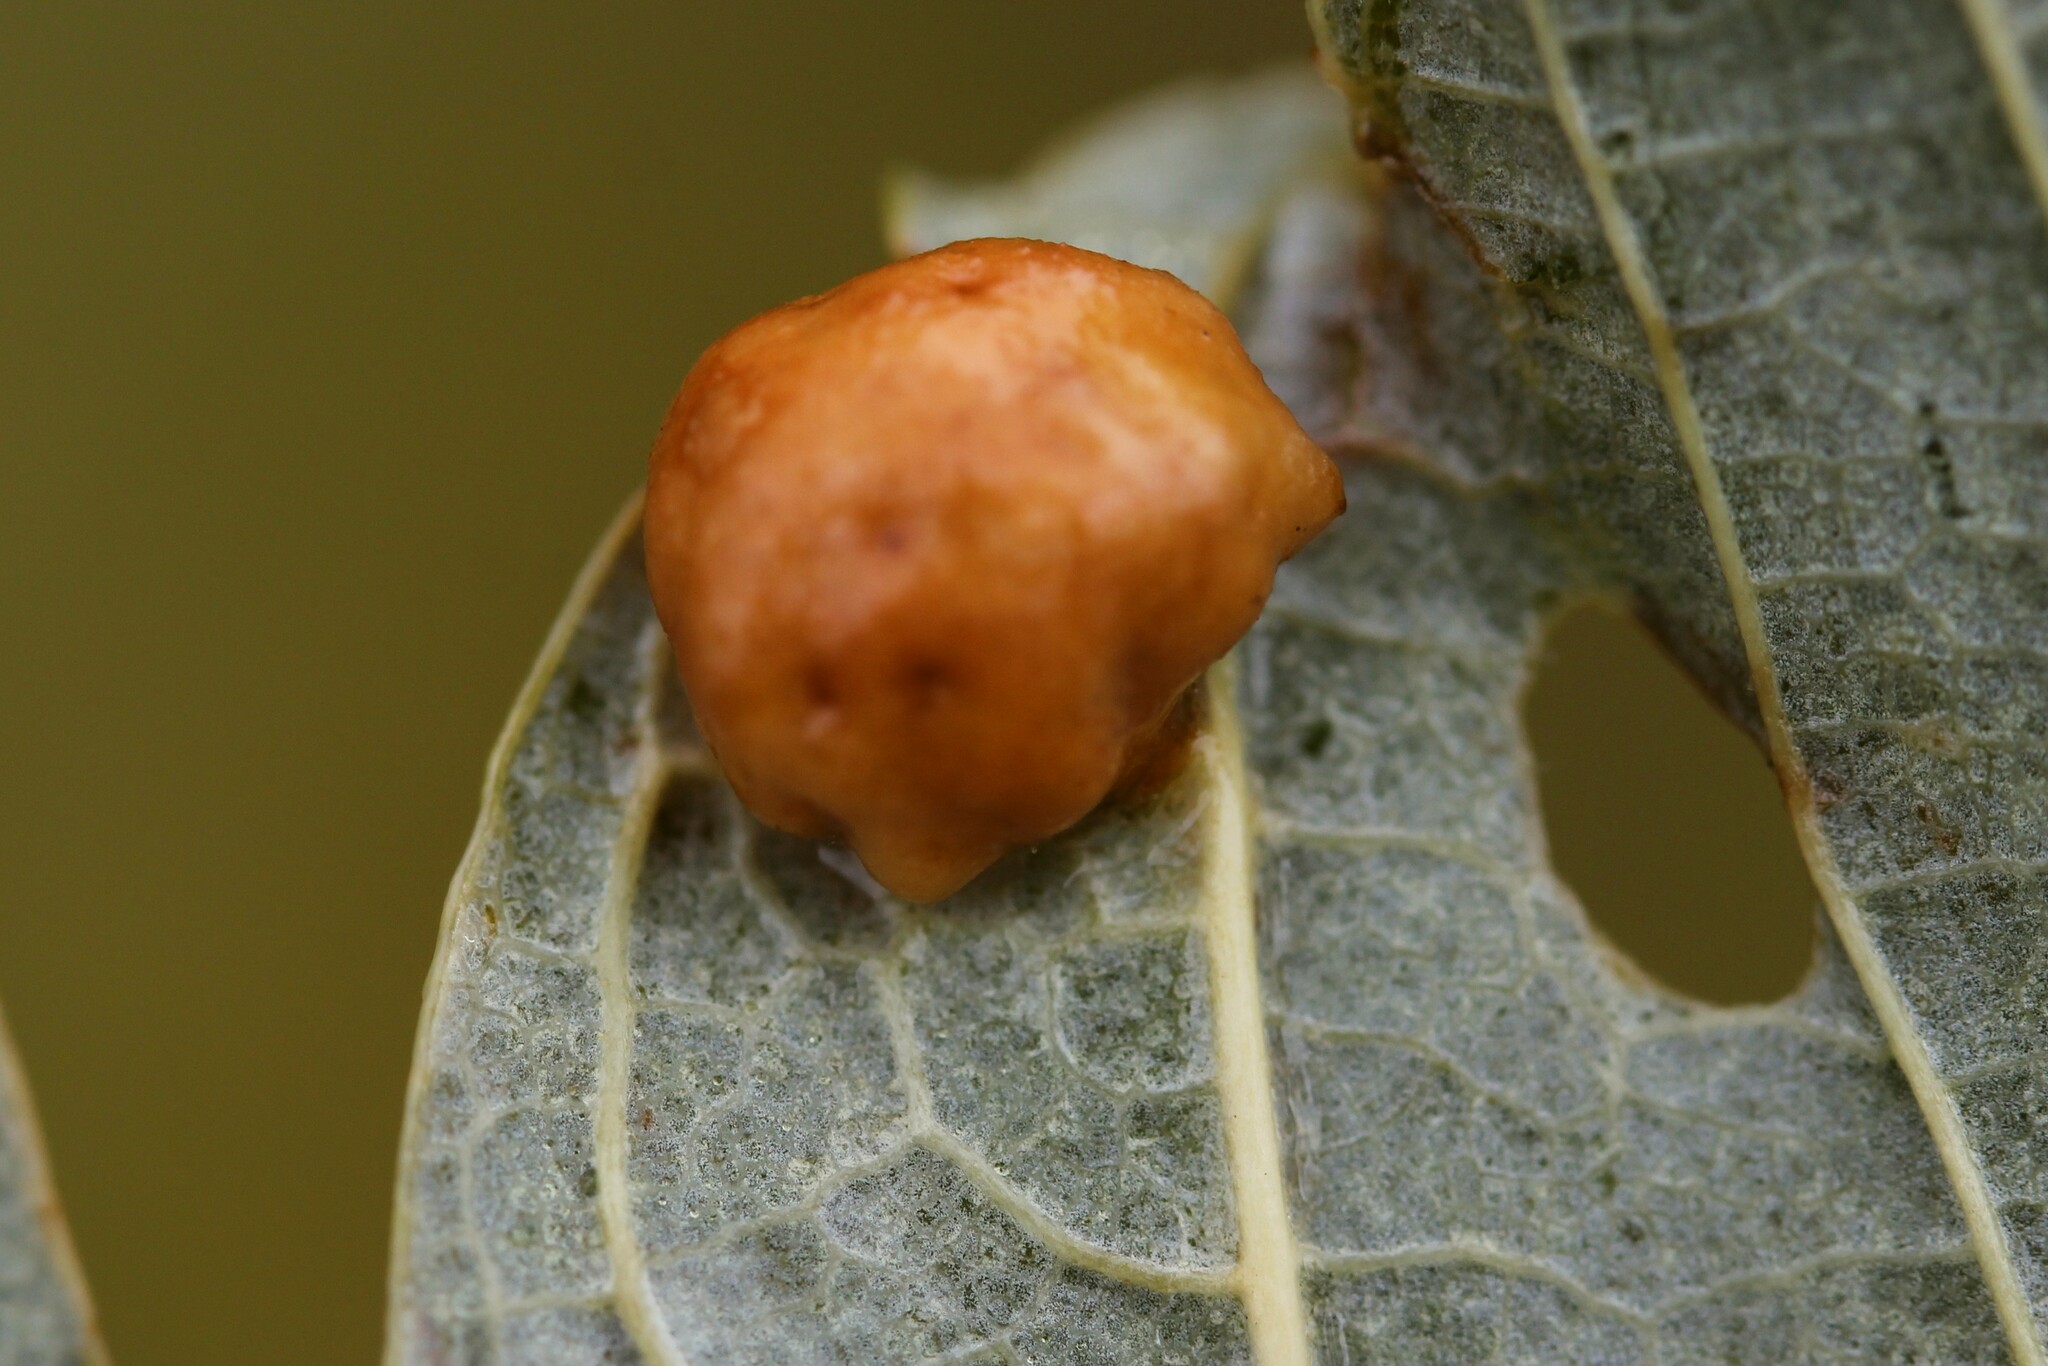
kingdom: Animalia
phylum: Arthropoda
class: Insecta
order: Hymenoptera
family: Cynipidae
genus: Pediaspis
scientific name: Pediaspis aceris
